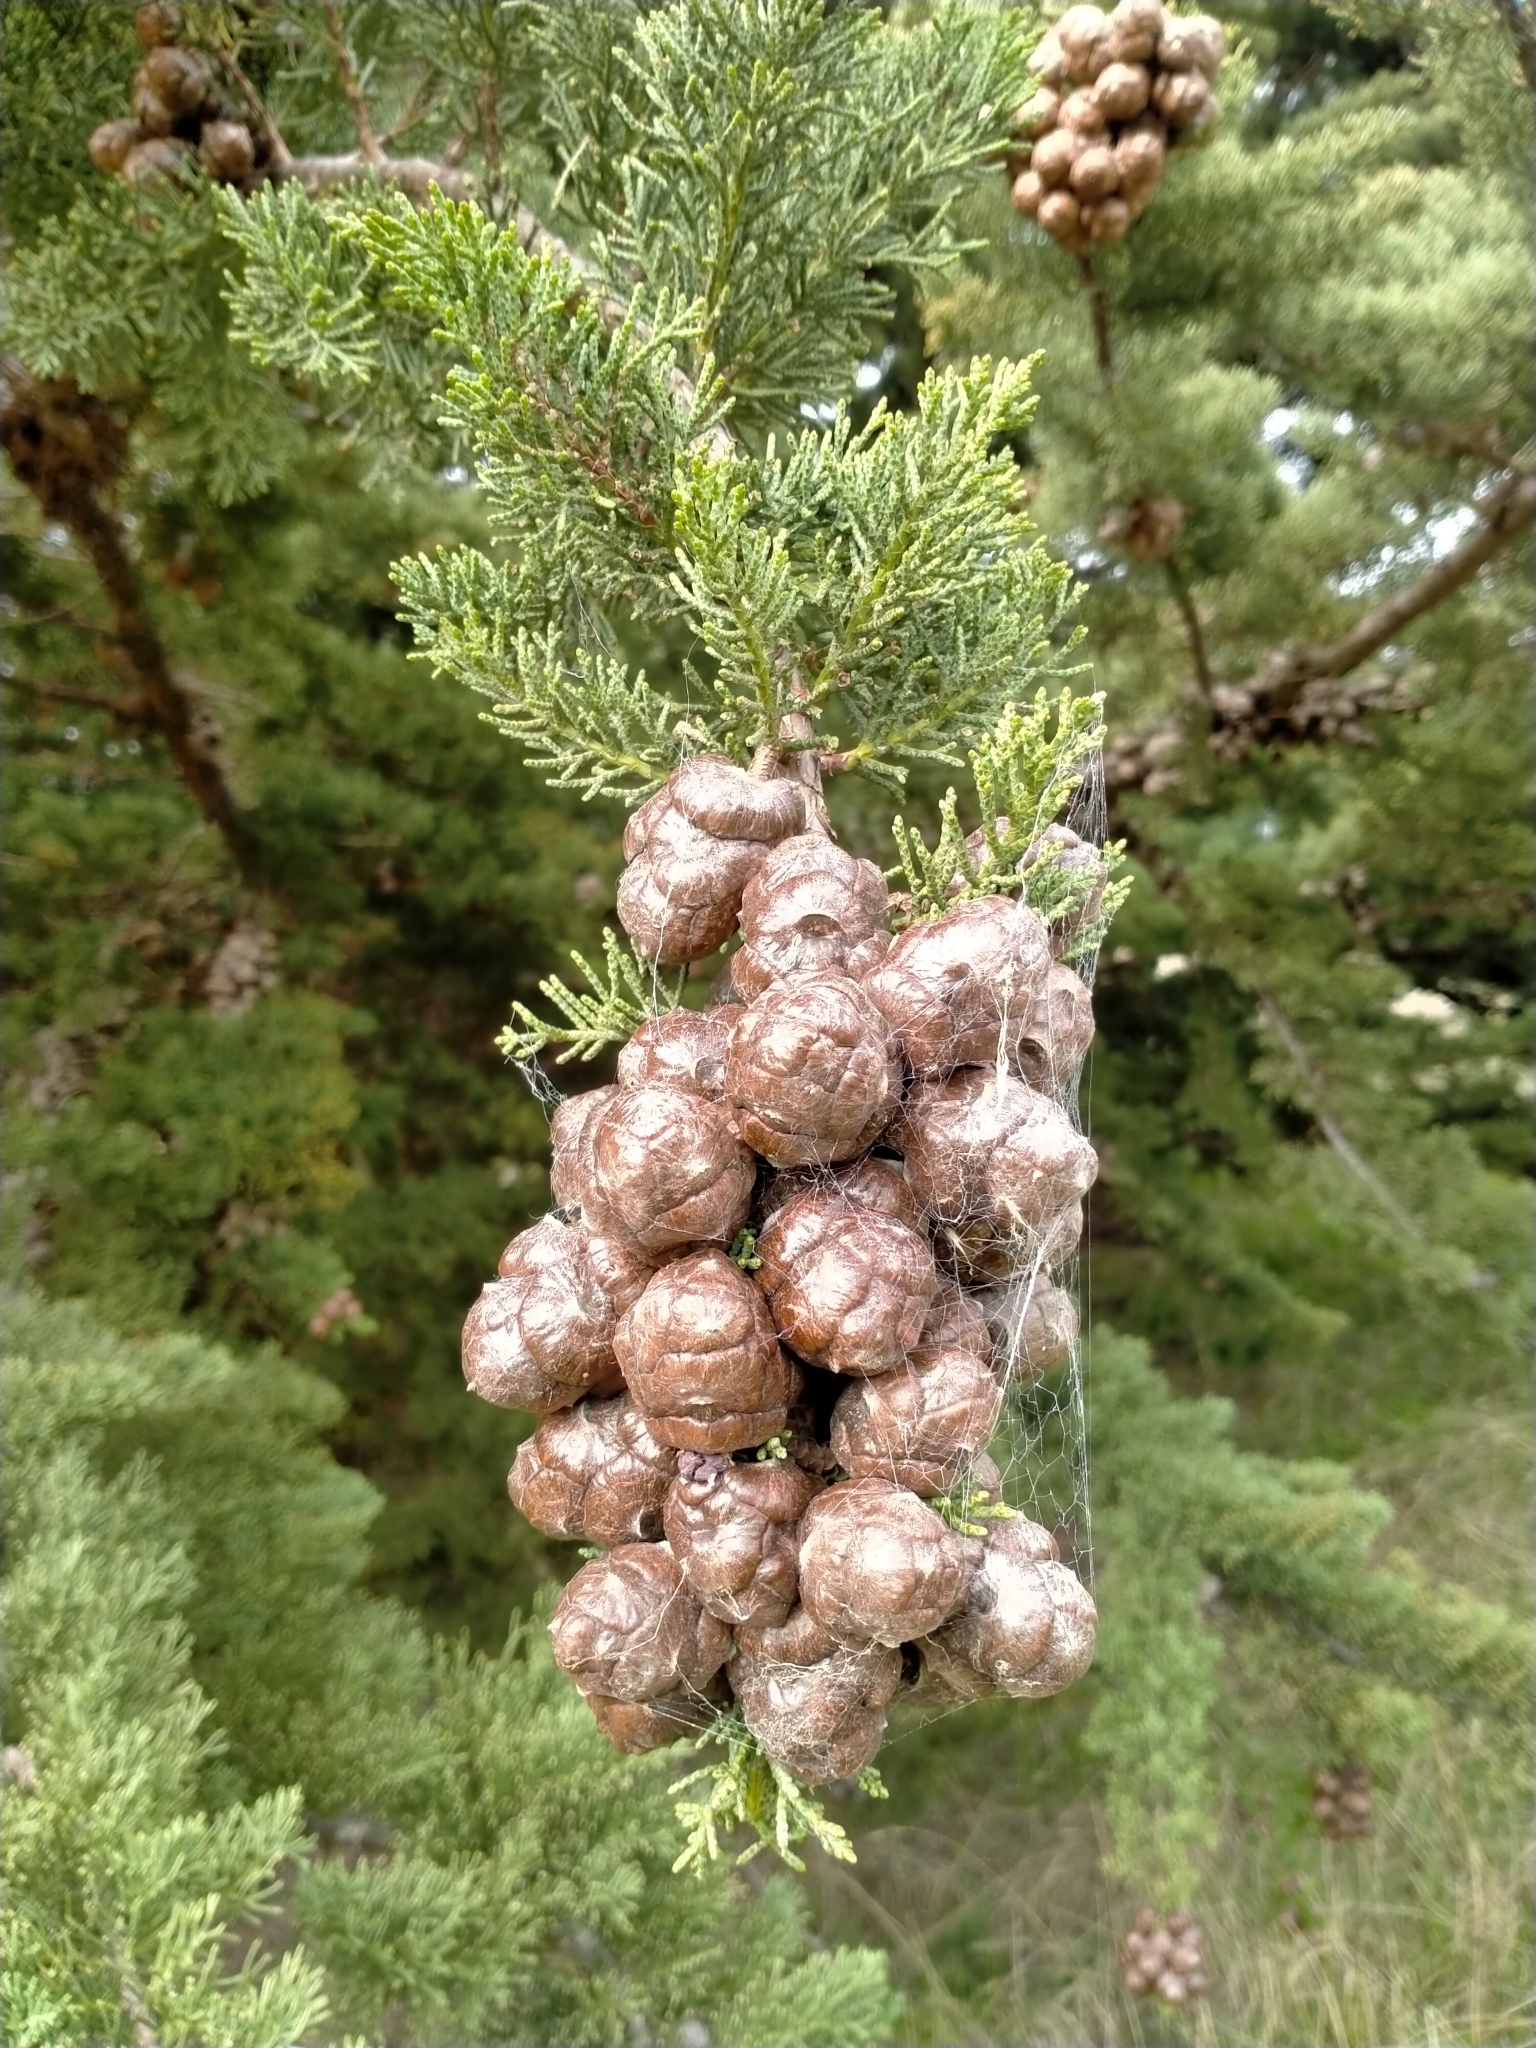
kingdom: Plantae
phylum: Tracheophyta
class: Pinopsida
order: Pinales
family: Cupressaceae
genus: Cupressus
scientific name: Cupressus macrocarpa
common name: Monterey cypress
